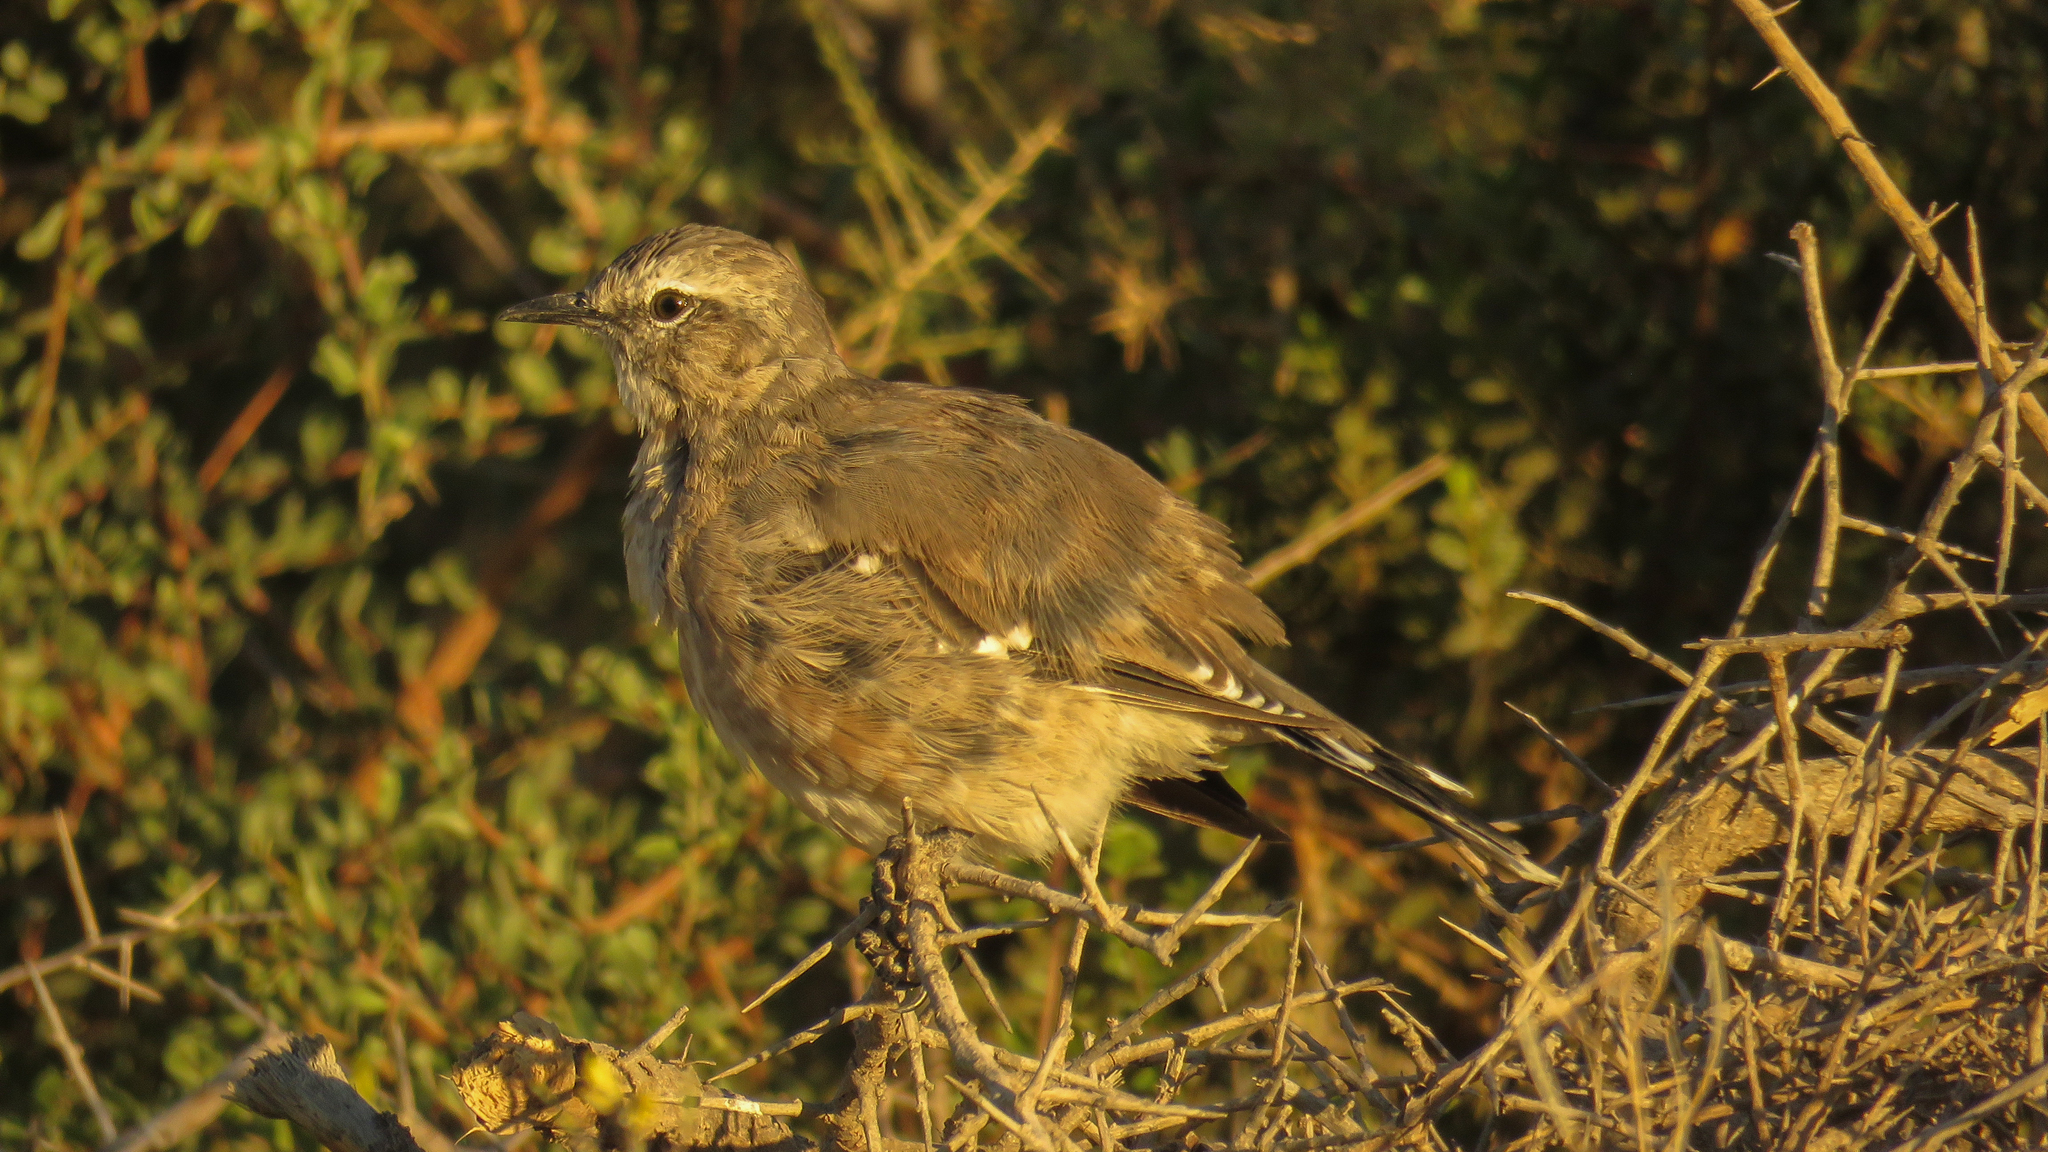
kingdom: Animalia
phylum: Chordata
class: Aves
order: Passeriformes
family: Mimidae
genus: Mimus
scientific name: Mimus patagonicus
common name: Patagonian mockingbird
